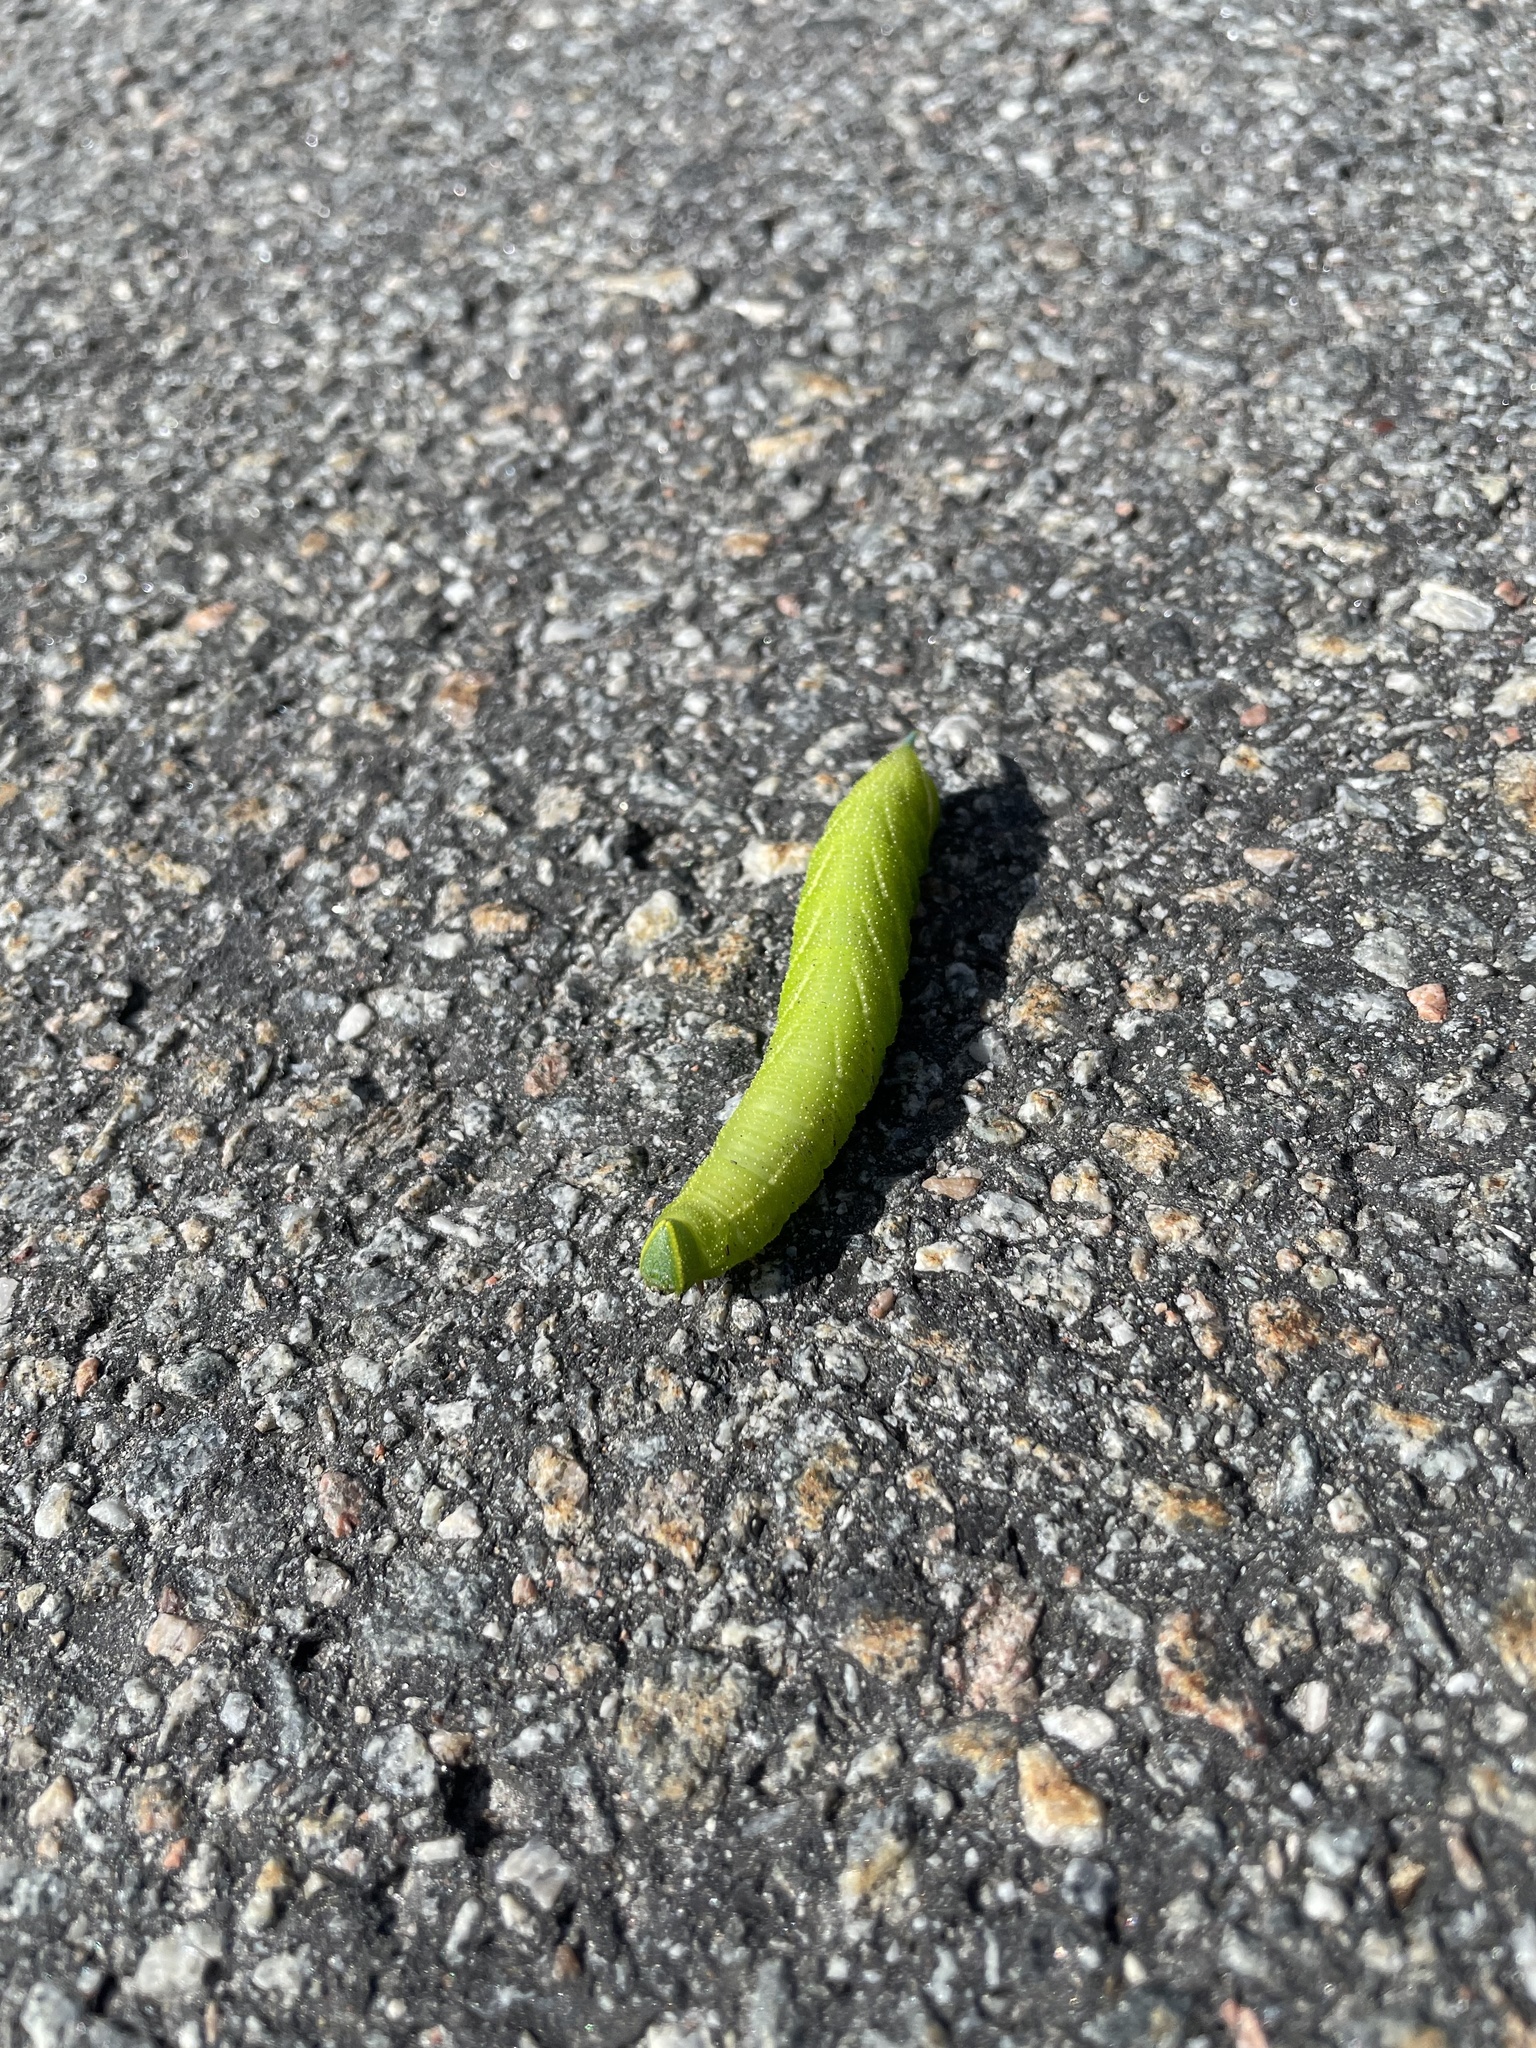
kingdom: Animalia
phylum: Arthropoda
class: Insecta
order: Lepidoptera
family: Sphingidae
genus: Smerinthus
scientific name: Smerinthus ocellata
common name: Eyed hawk-moth
